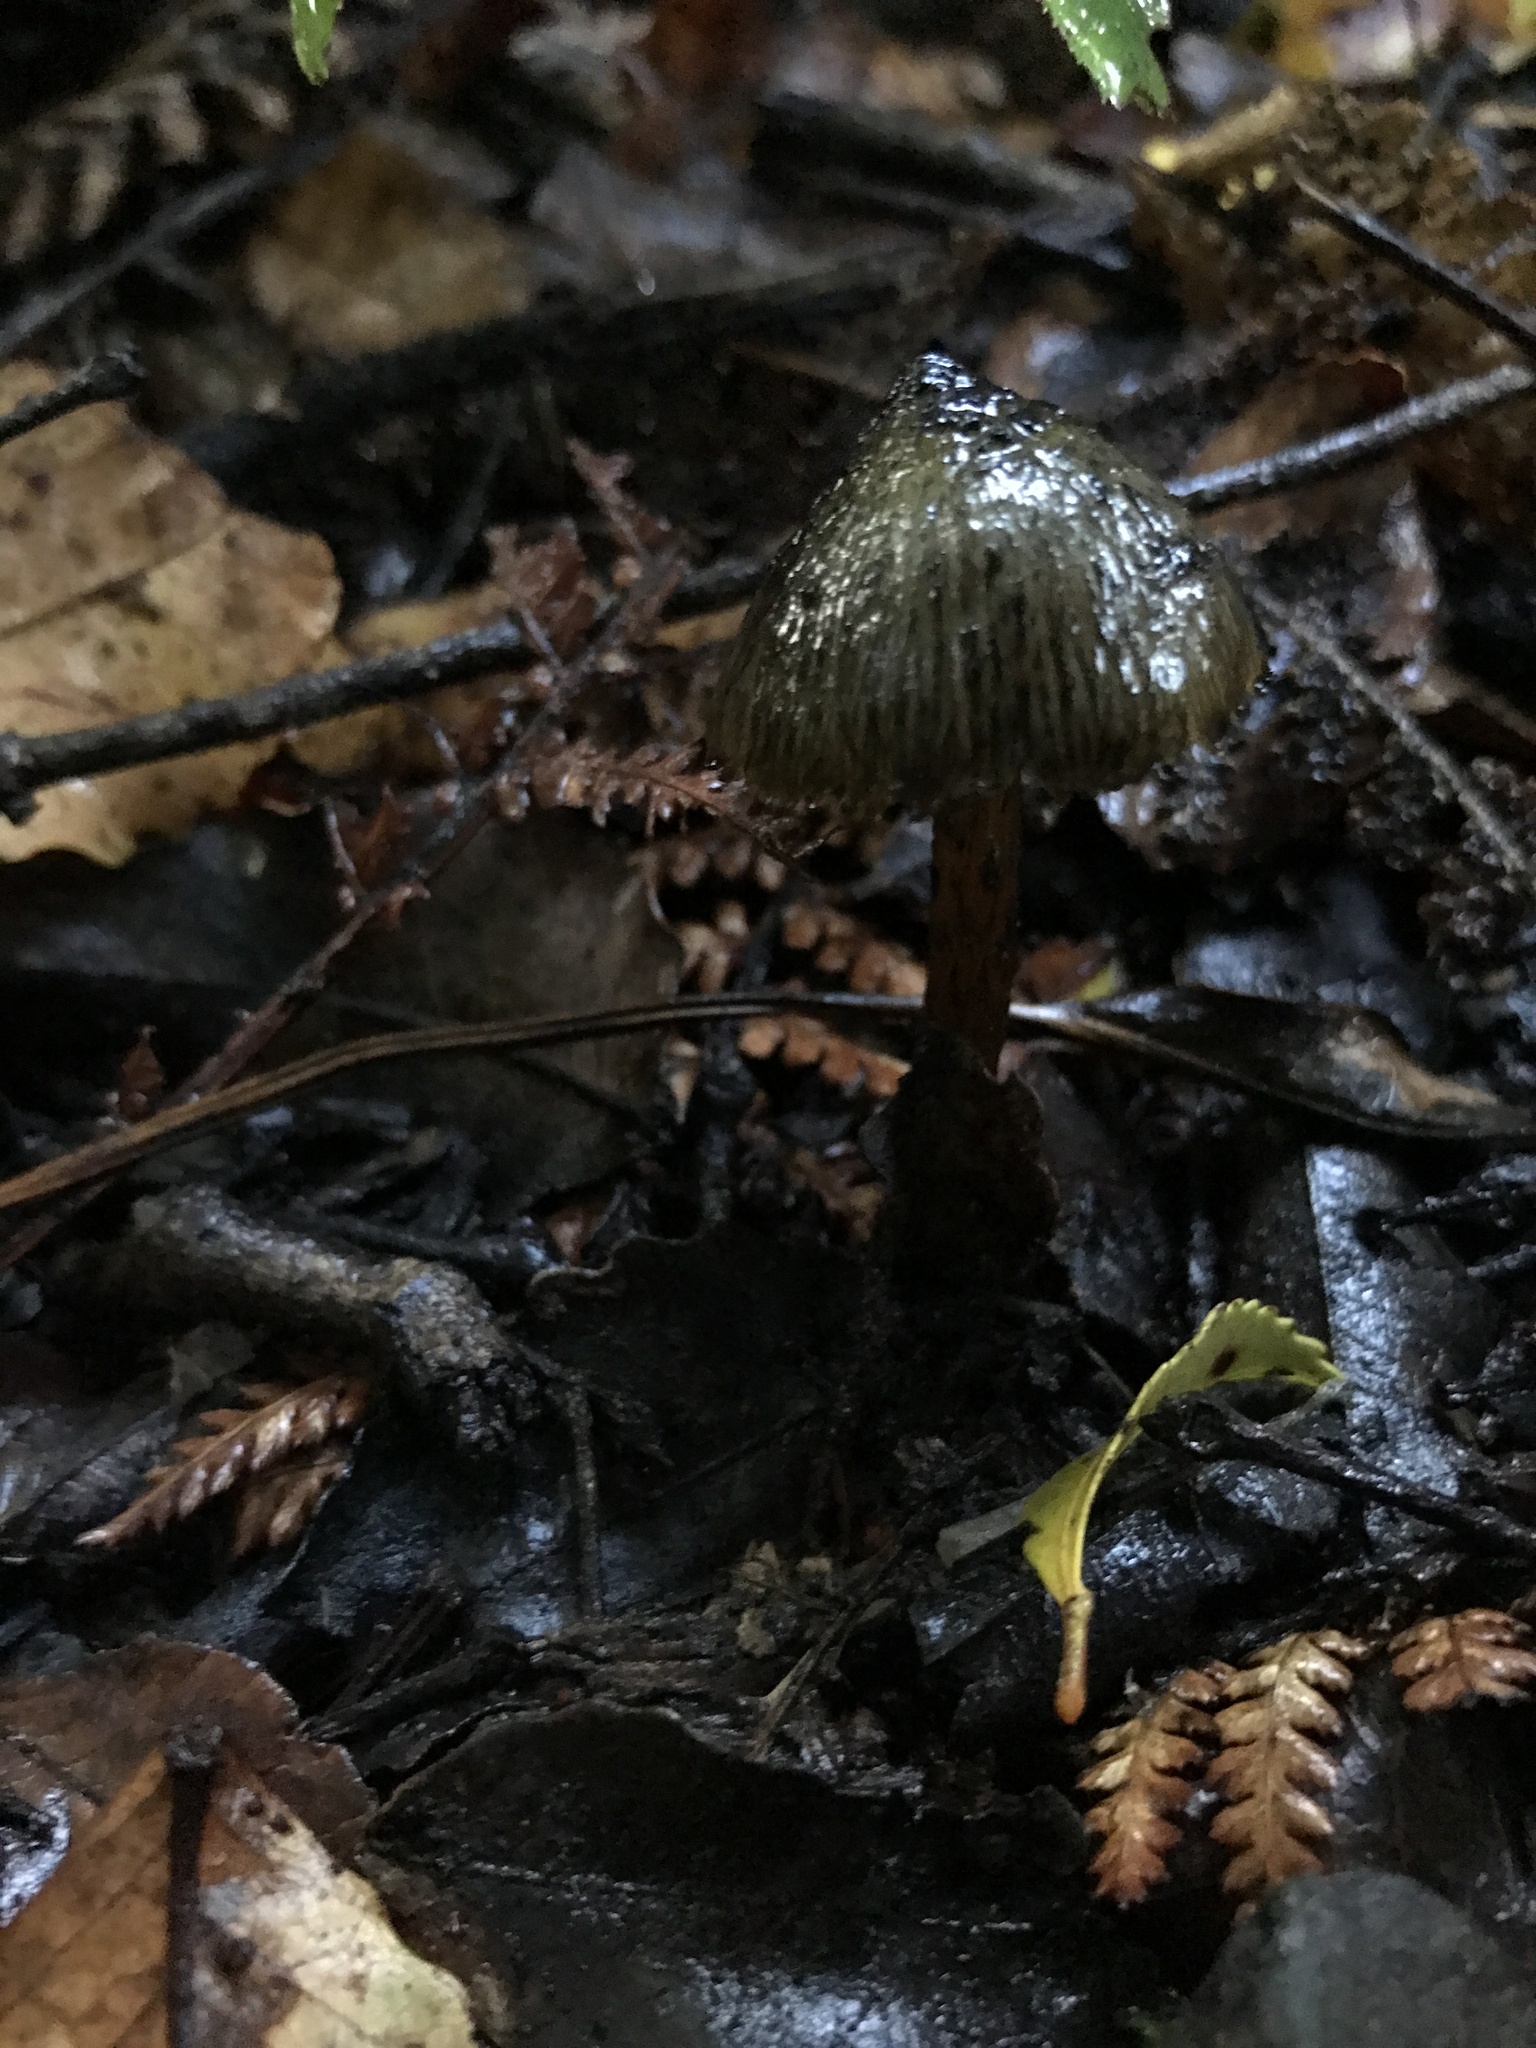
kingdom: Fungi
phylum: Basidiomycota
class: Agaricomycetes
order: Agaricales
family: Hygrophoraceae
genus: Hygrocybe
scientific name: Hygrocybe astatogala
